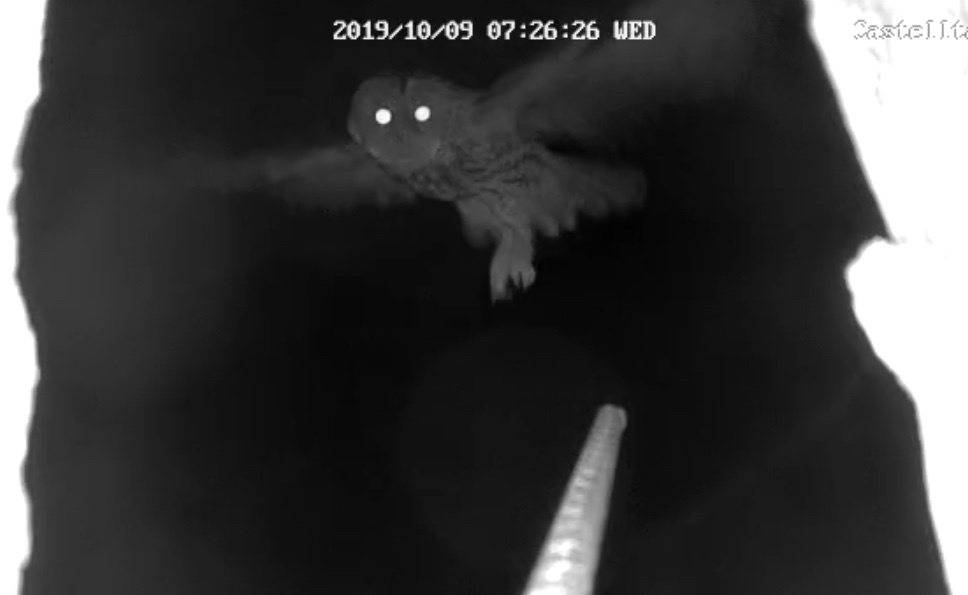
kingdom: Animalia
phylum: Chordata
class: Aves
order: Strigiformes
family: Strigidae
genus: Strix
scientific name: Strix aluco
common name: Tawny owl
